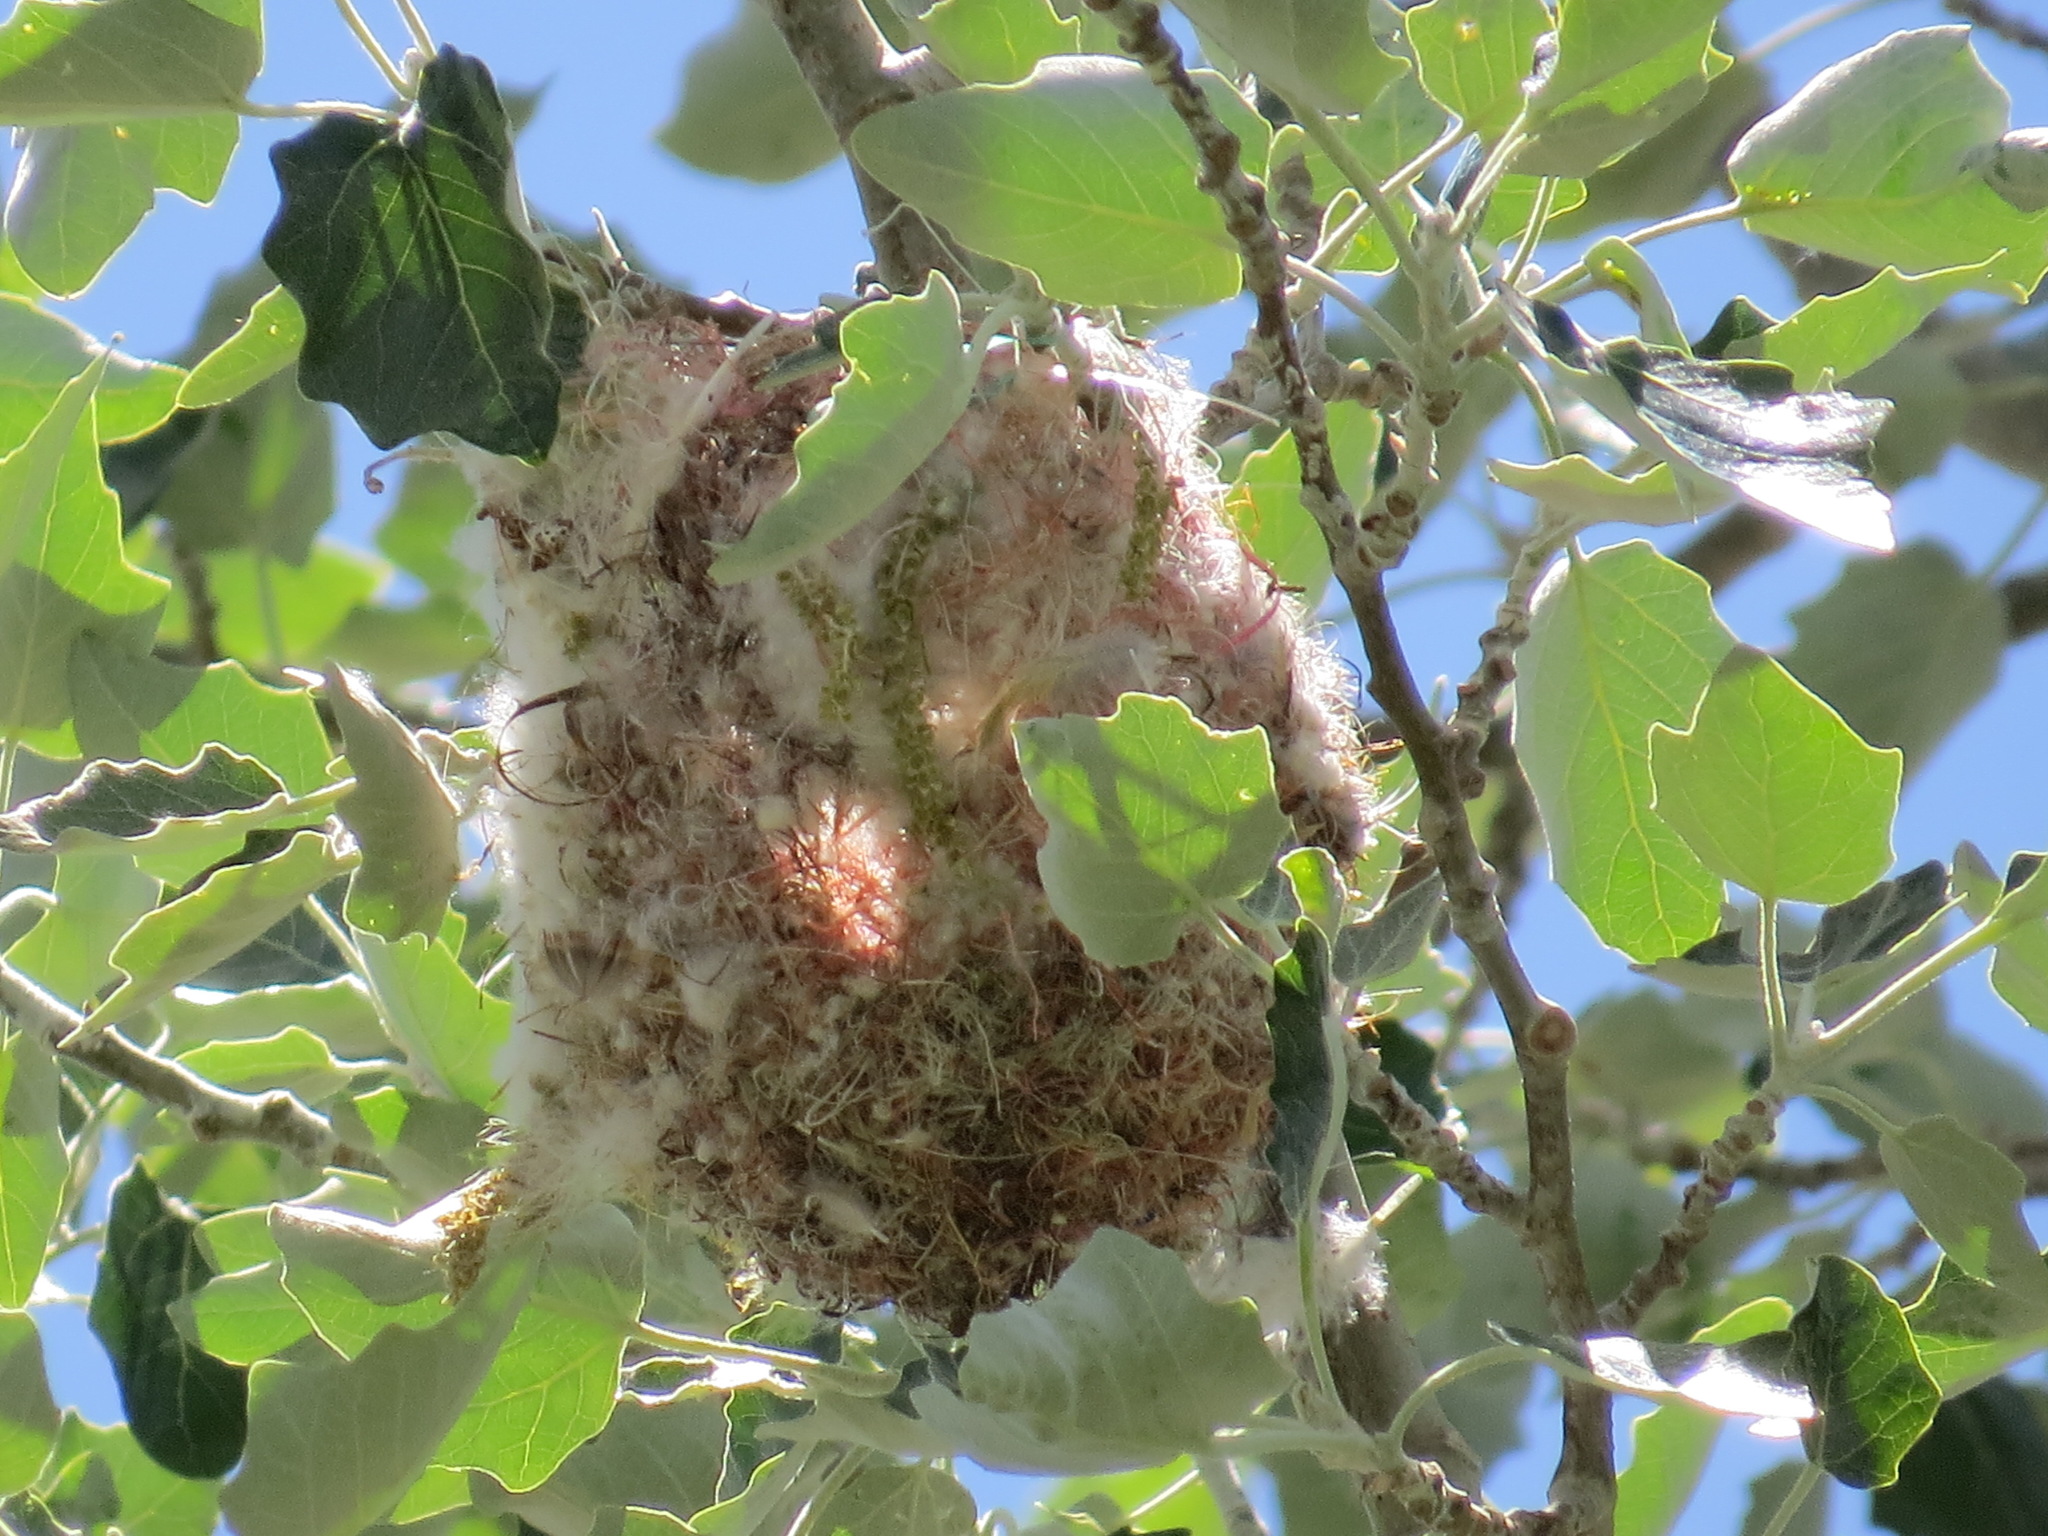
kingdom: Animalia
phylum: Chordata
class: Aves
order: Passeriformes
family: Icteridae
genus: Icterus
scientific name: Icterus bullockii
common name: Bullock's oriole
